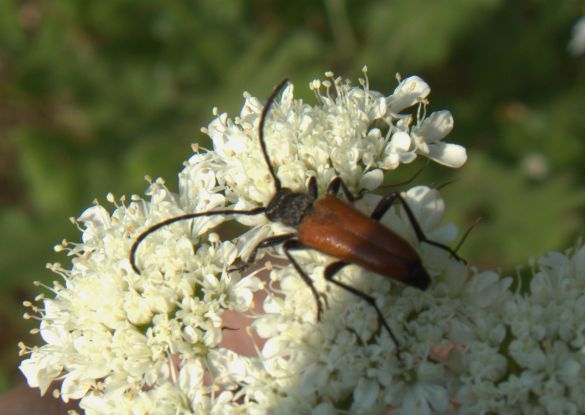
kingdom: Animalia
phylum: Arthropoda
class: Insecta
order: Coleoptera
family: Cerambycidae
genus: Paracorymbia
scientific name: Paracorymbia pallens
